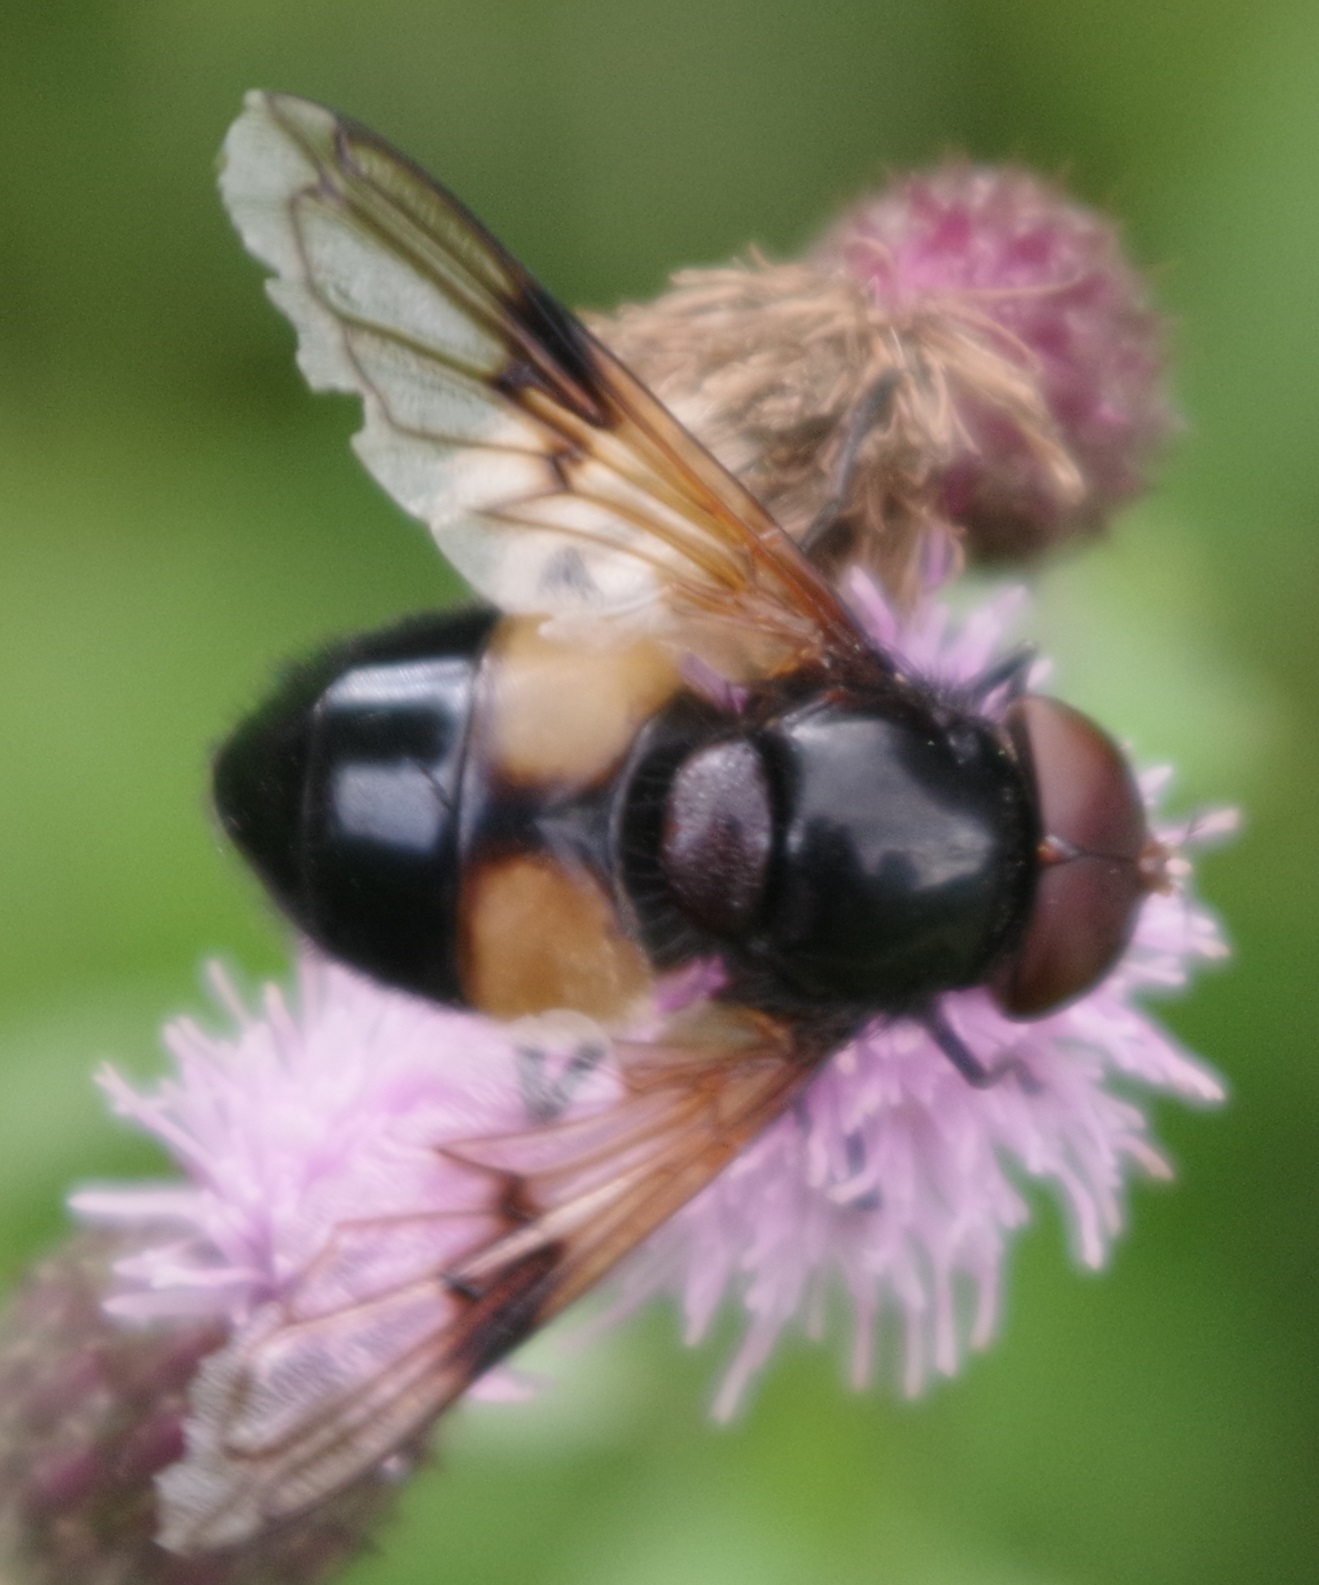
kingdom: Animalia
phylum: Arthropoda
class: Insecta
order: Diptera
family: Syrphidae
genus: Volucella
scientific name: Volucella pellucens
